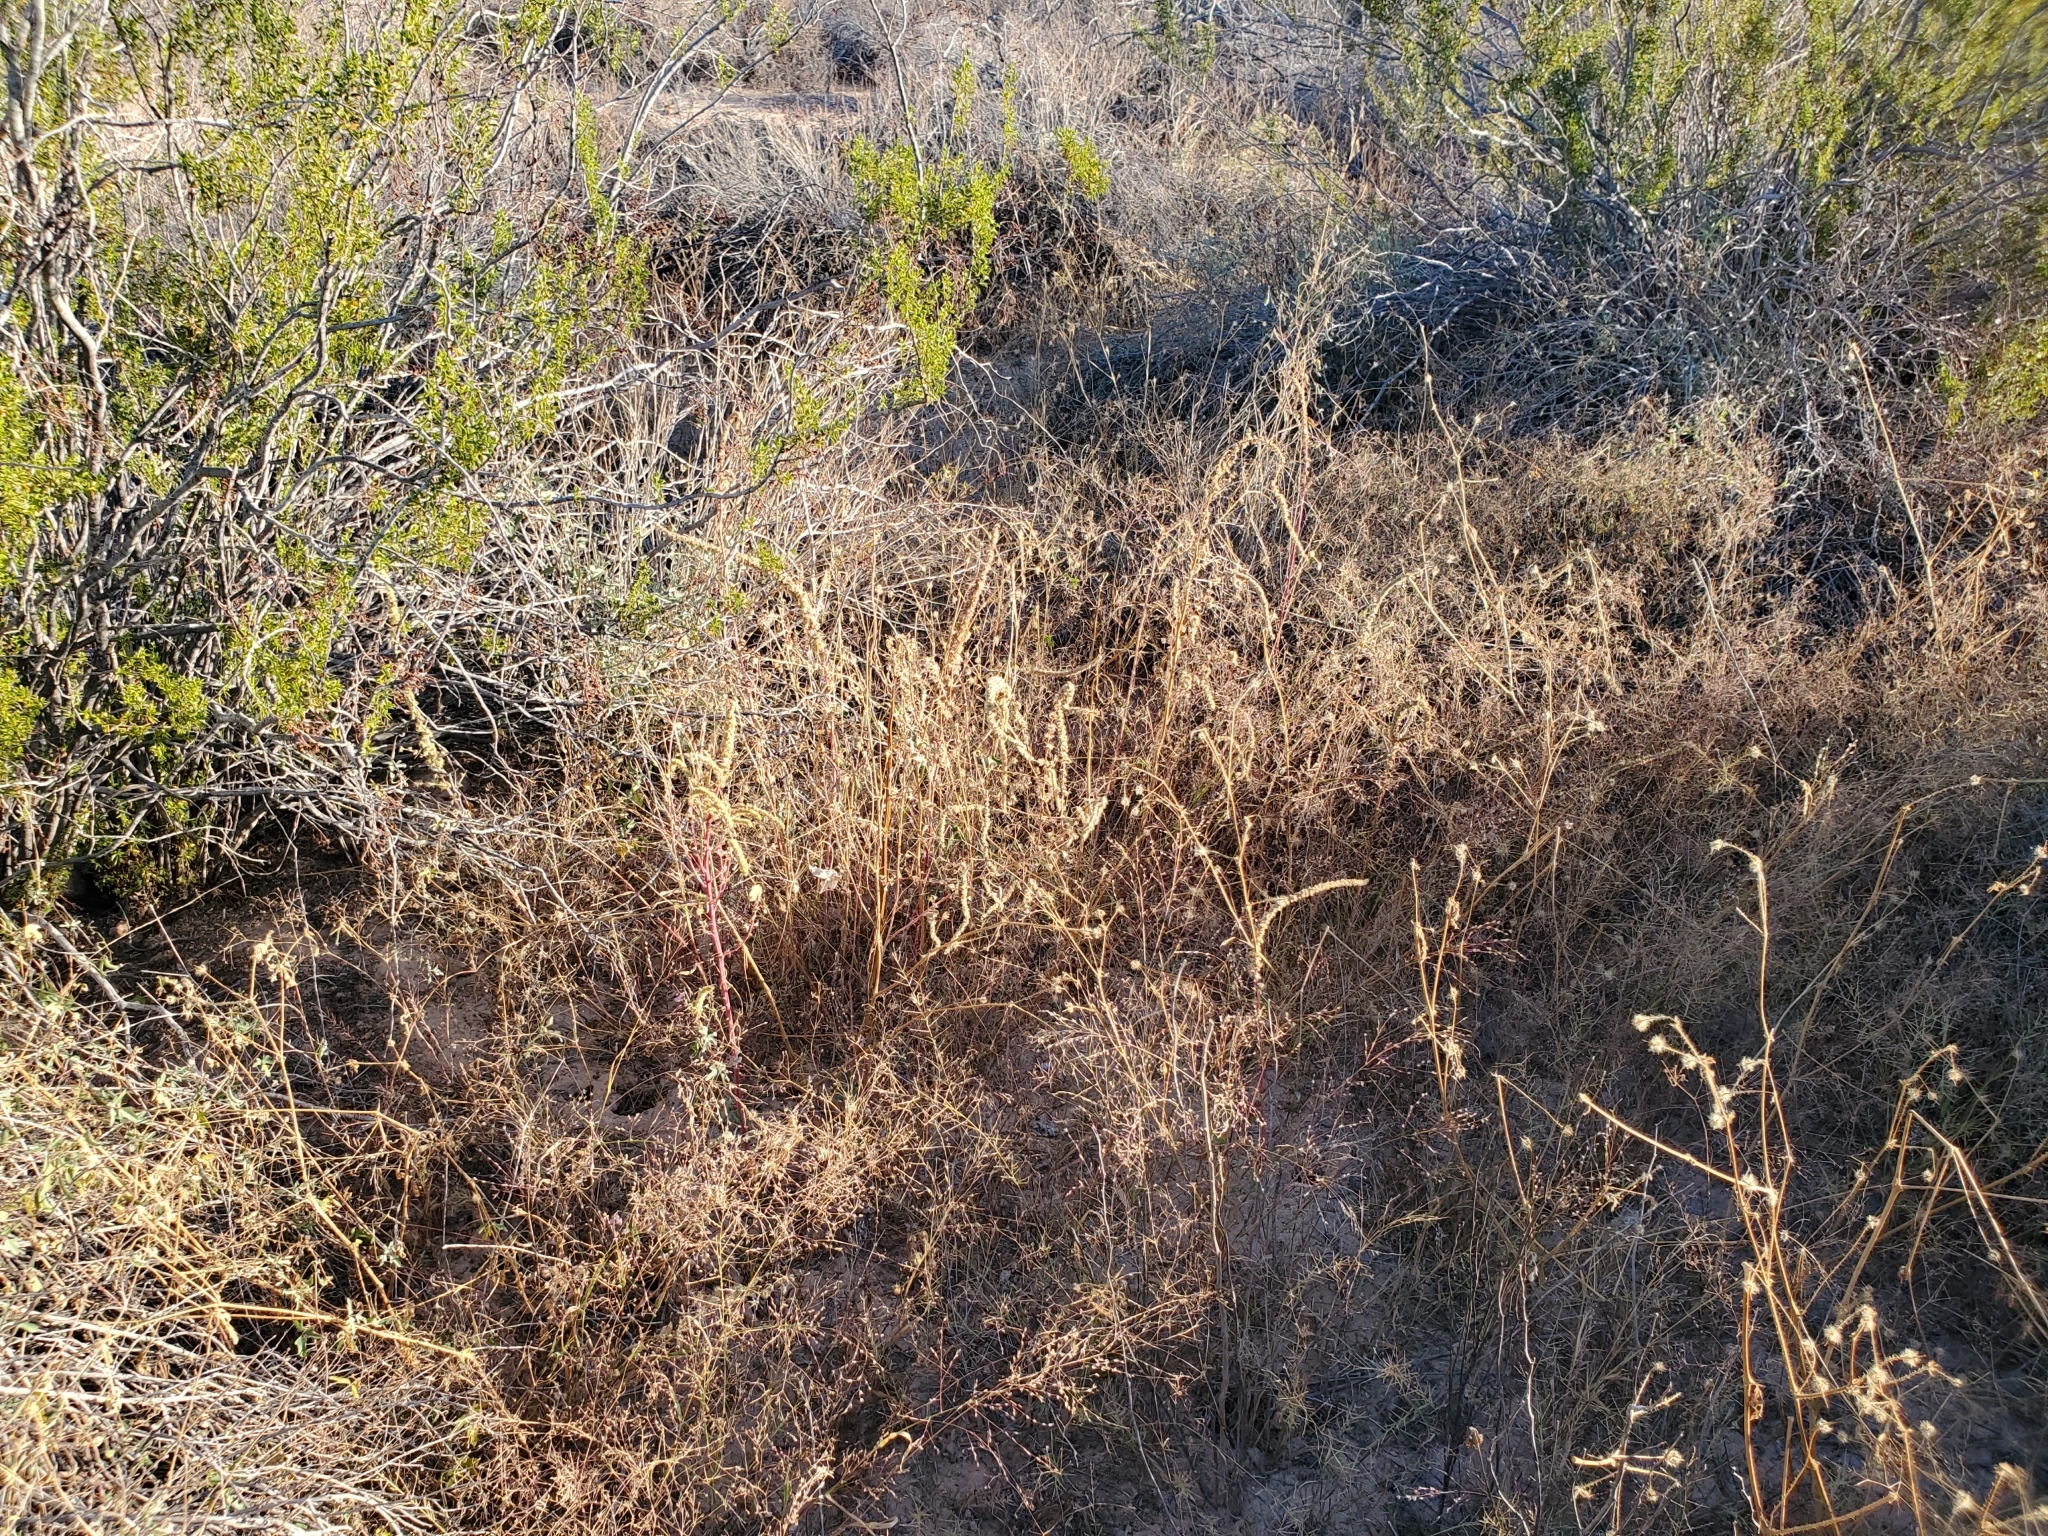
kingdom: Plantae
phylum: Tracheophyta
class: Magnoliopsida
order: Caryophyllales
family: Amaranthaceae
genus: Amaranthus
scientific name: Amaranthus palmeri
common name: Dioecious amaranth
